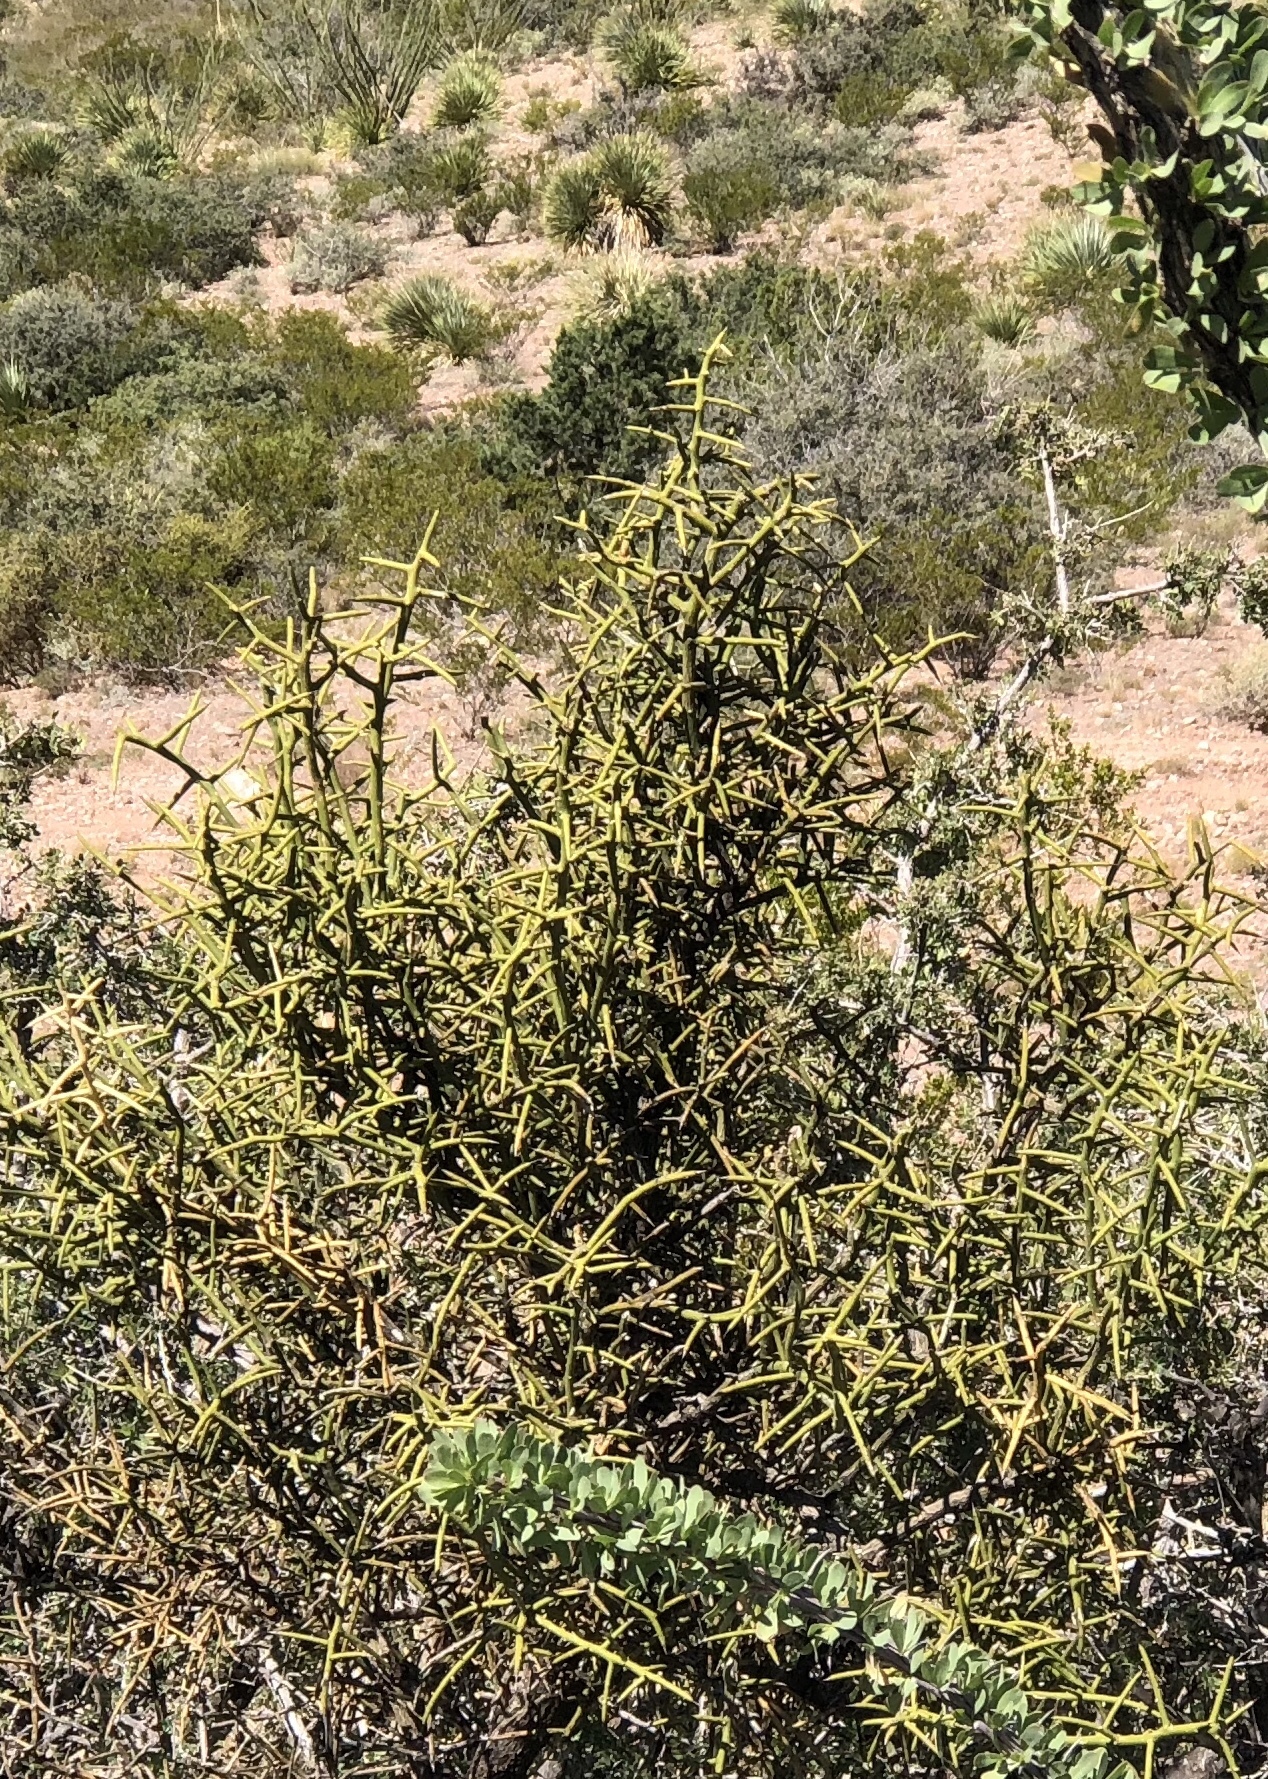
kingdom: Plantae
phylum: Tracheophyta
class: Magnoliopsida
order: Brassicales
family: Koeberliniaceae
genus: Koeberlinia
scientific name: Koeberlinia spinosa
